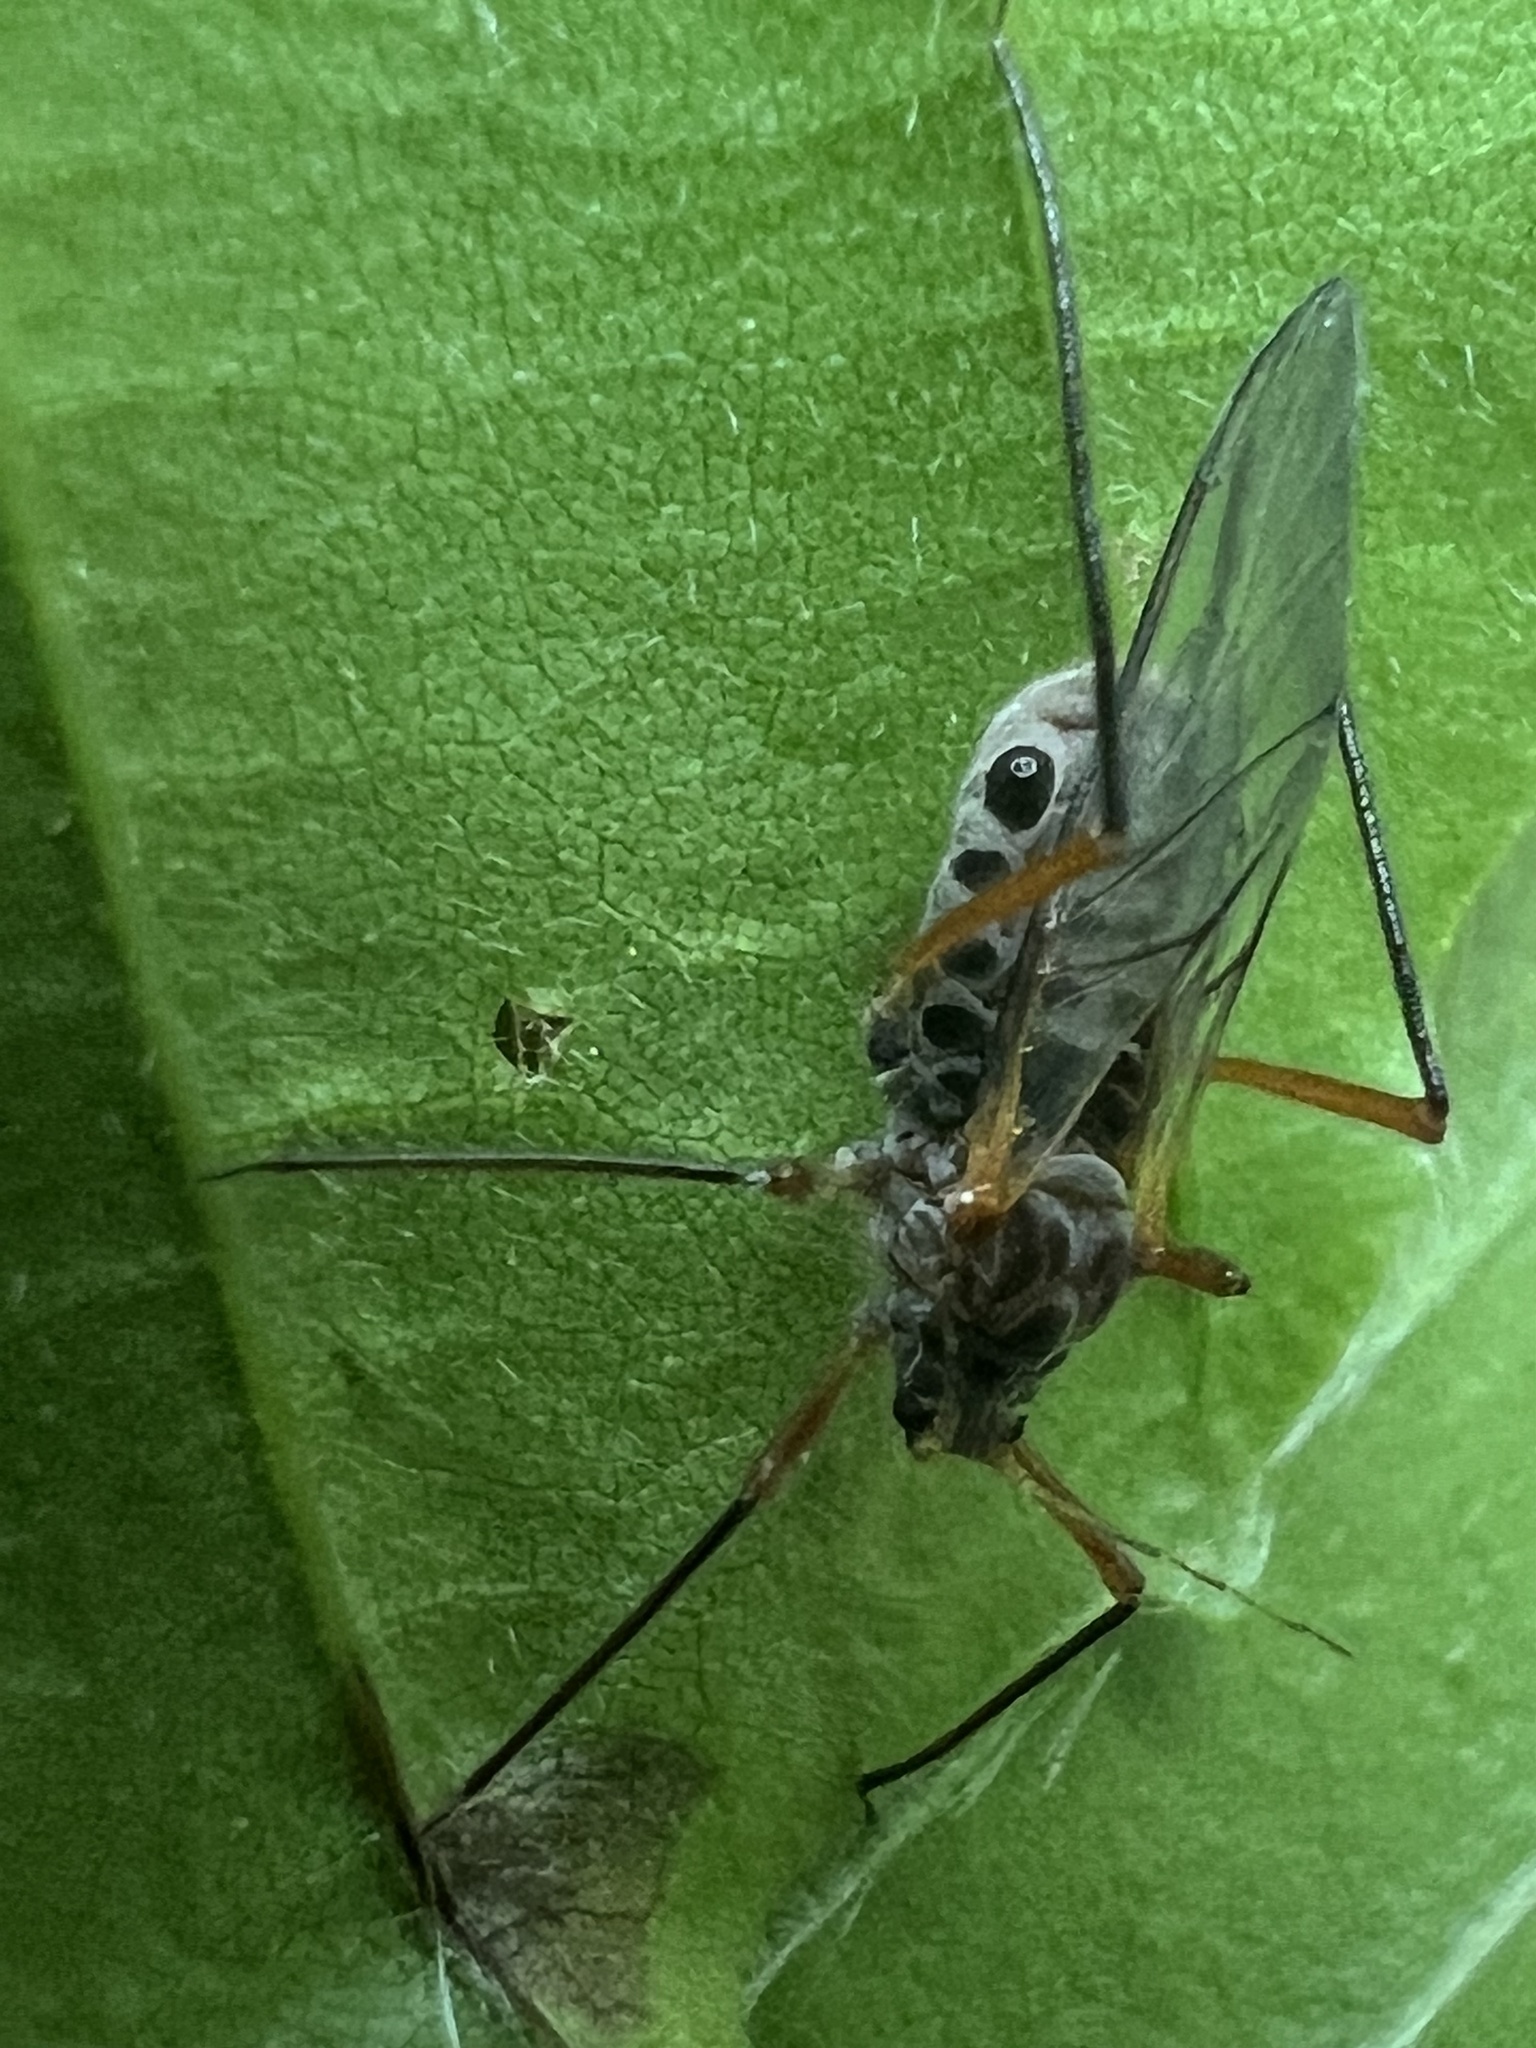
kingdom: Animalia
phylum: Arthropoda
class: Insecta
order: Hemiptera
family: Aphididae
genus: Longistigma
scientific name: Longistigma caryae
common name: Giant bark aphid
